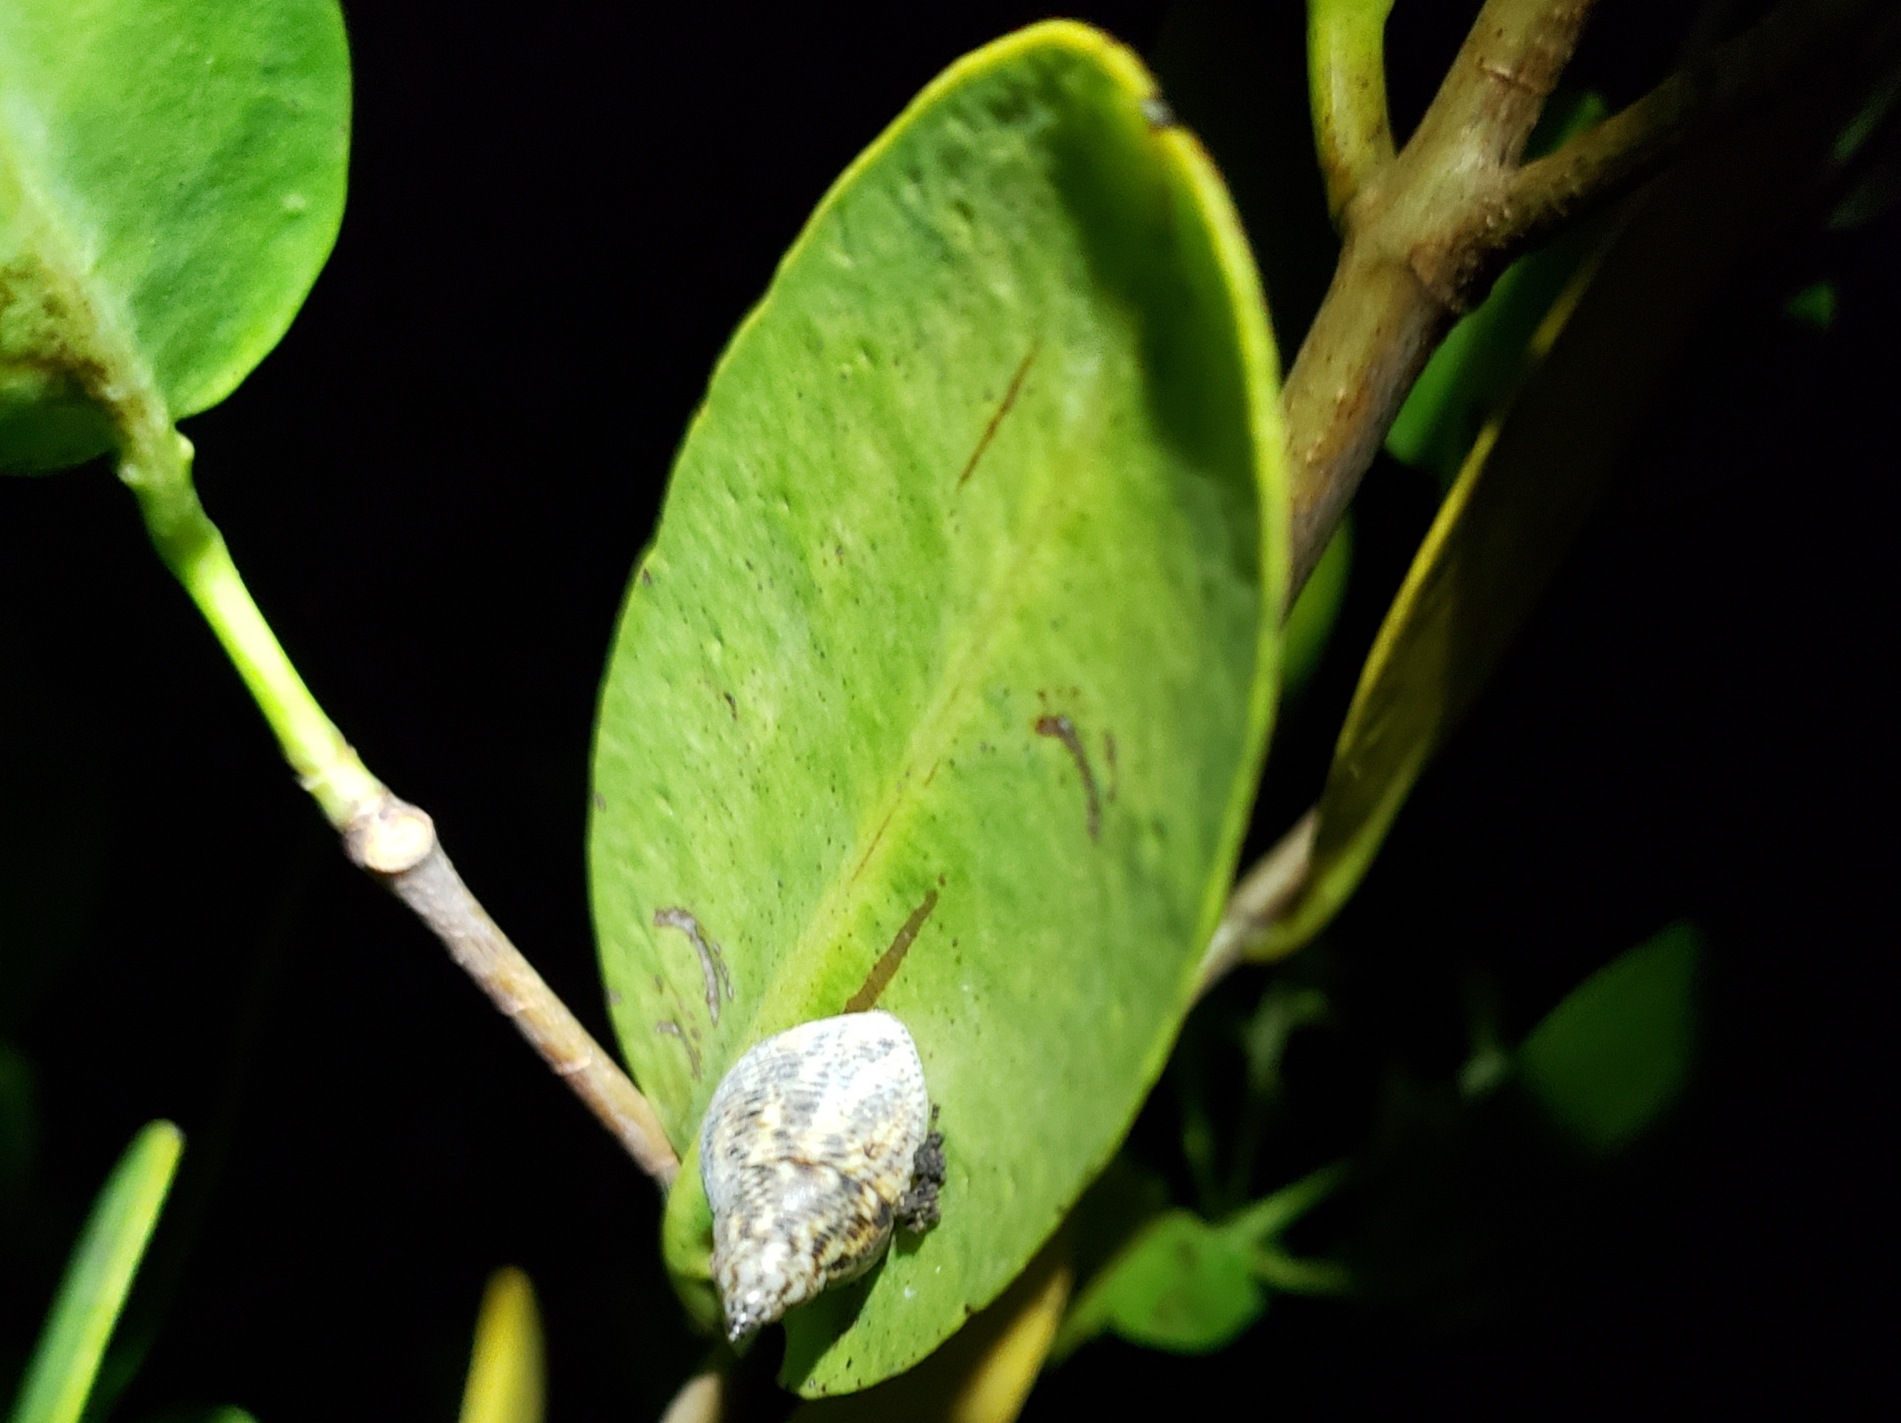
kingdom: Animalia
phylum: Mollusca
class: Gastropoda
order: Littorinimorpha
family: Littorinidae
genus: Littoraria
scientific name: Littoraria angulifera
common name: Mangrove periwinkle
